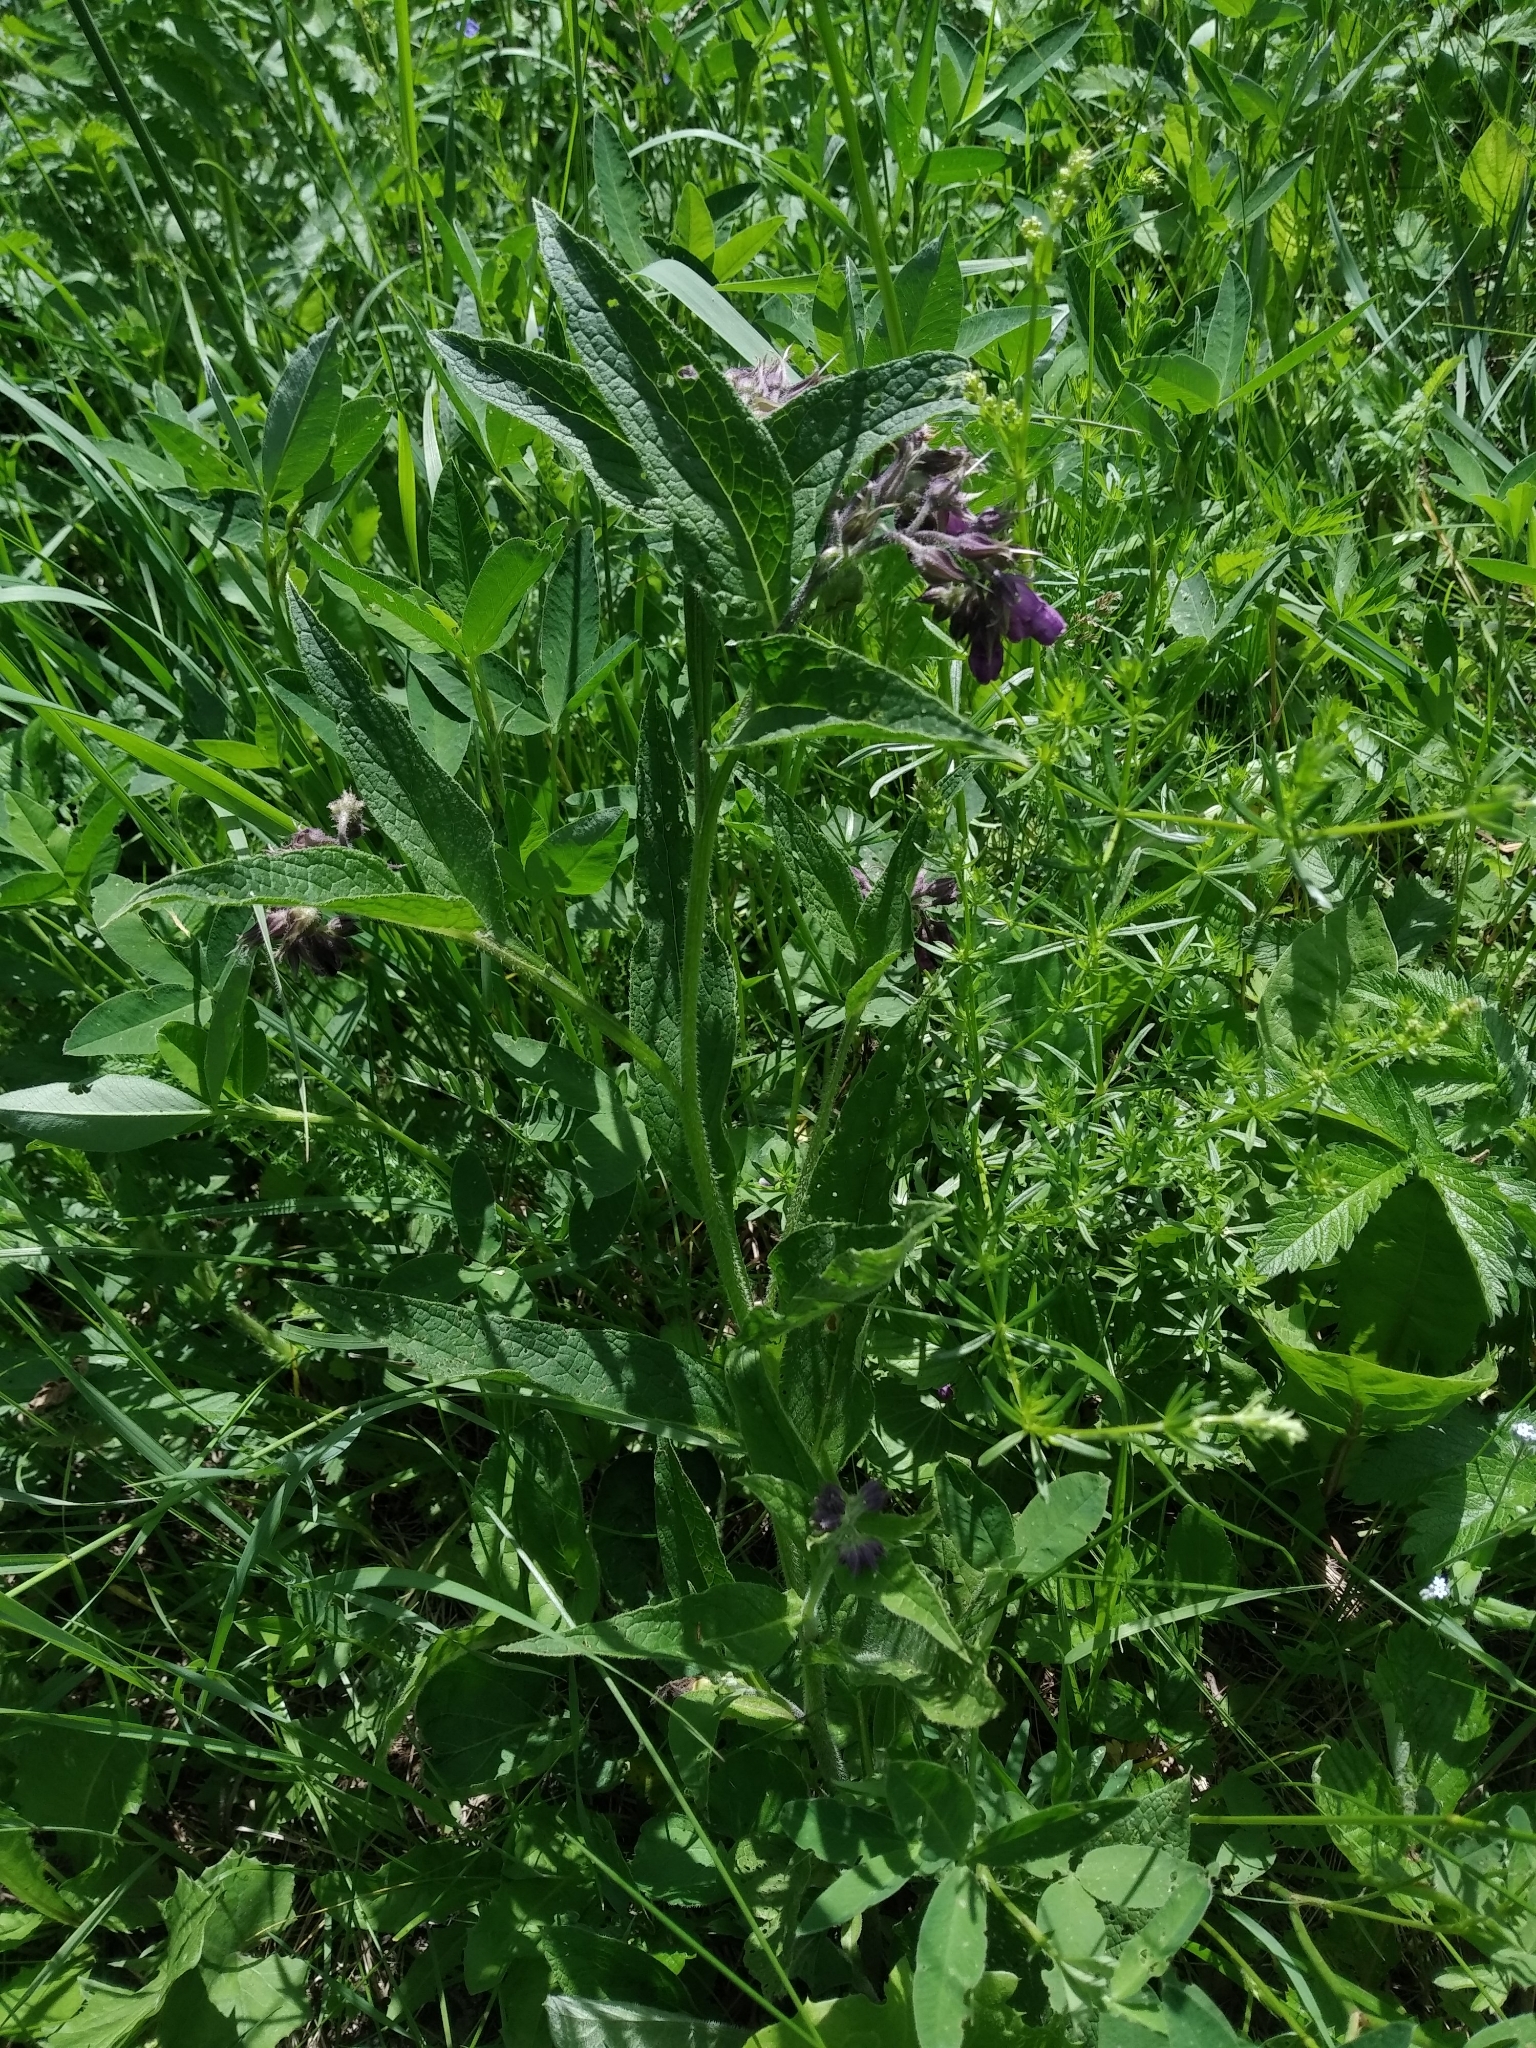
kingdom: Plantae
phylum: Tracheophyta
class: Magnoliopsida
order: Boraginales
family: Boraginaceae
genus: Symphytum
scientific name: Symphytum officinale
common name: Common comfrey
